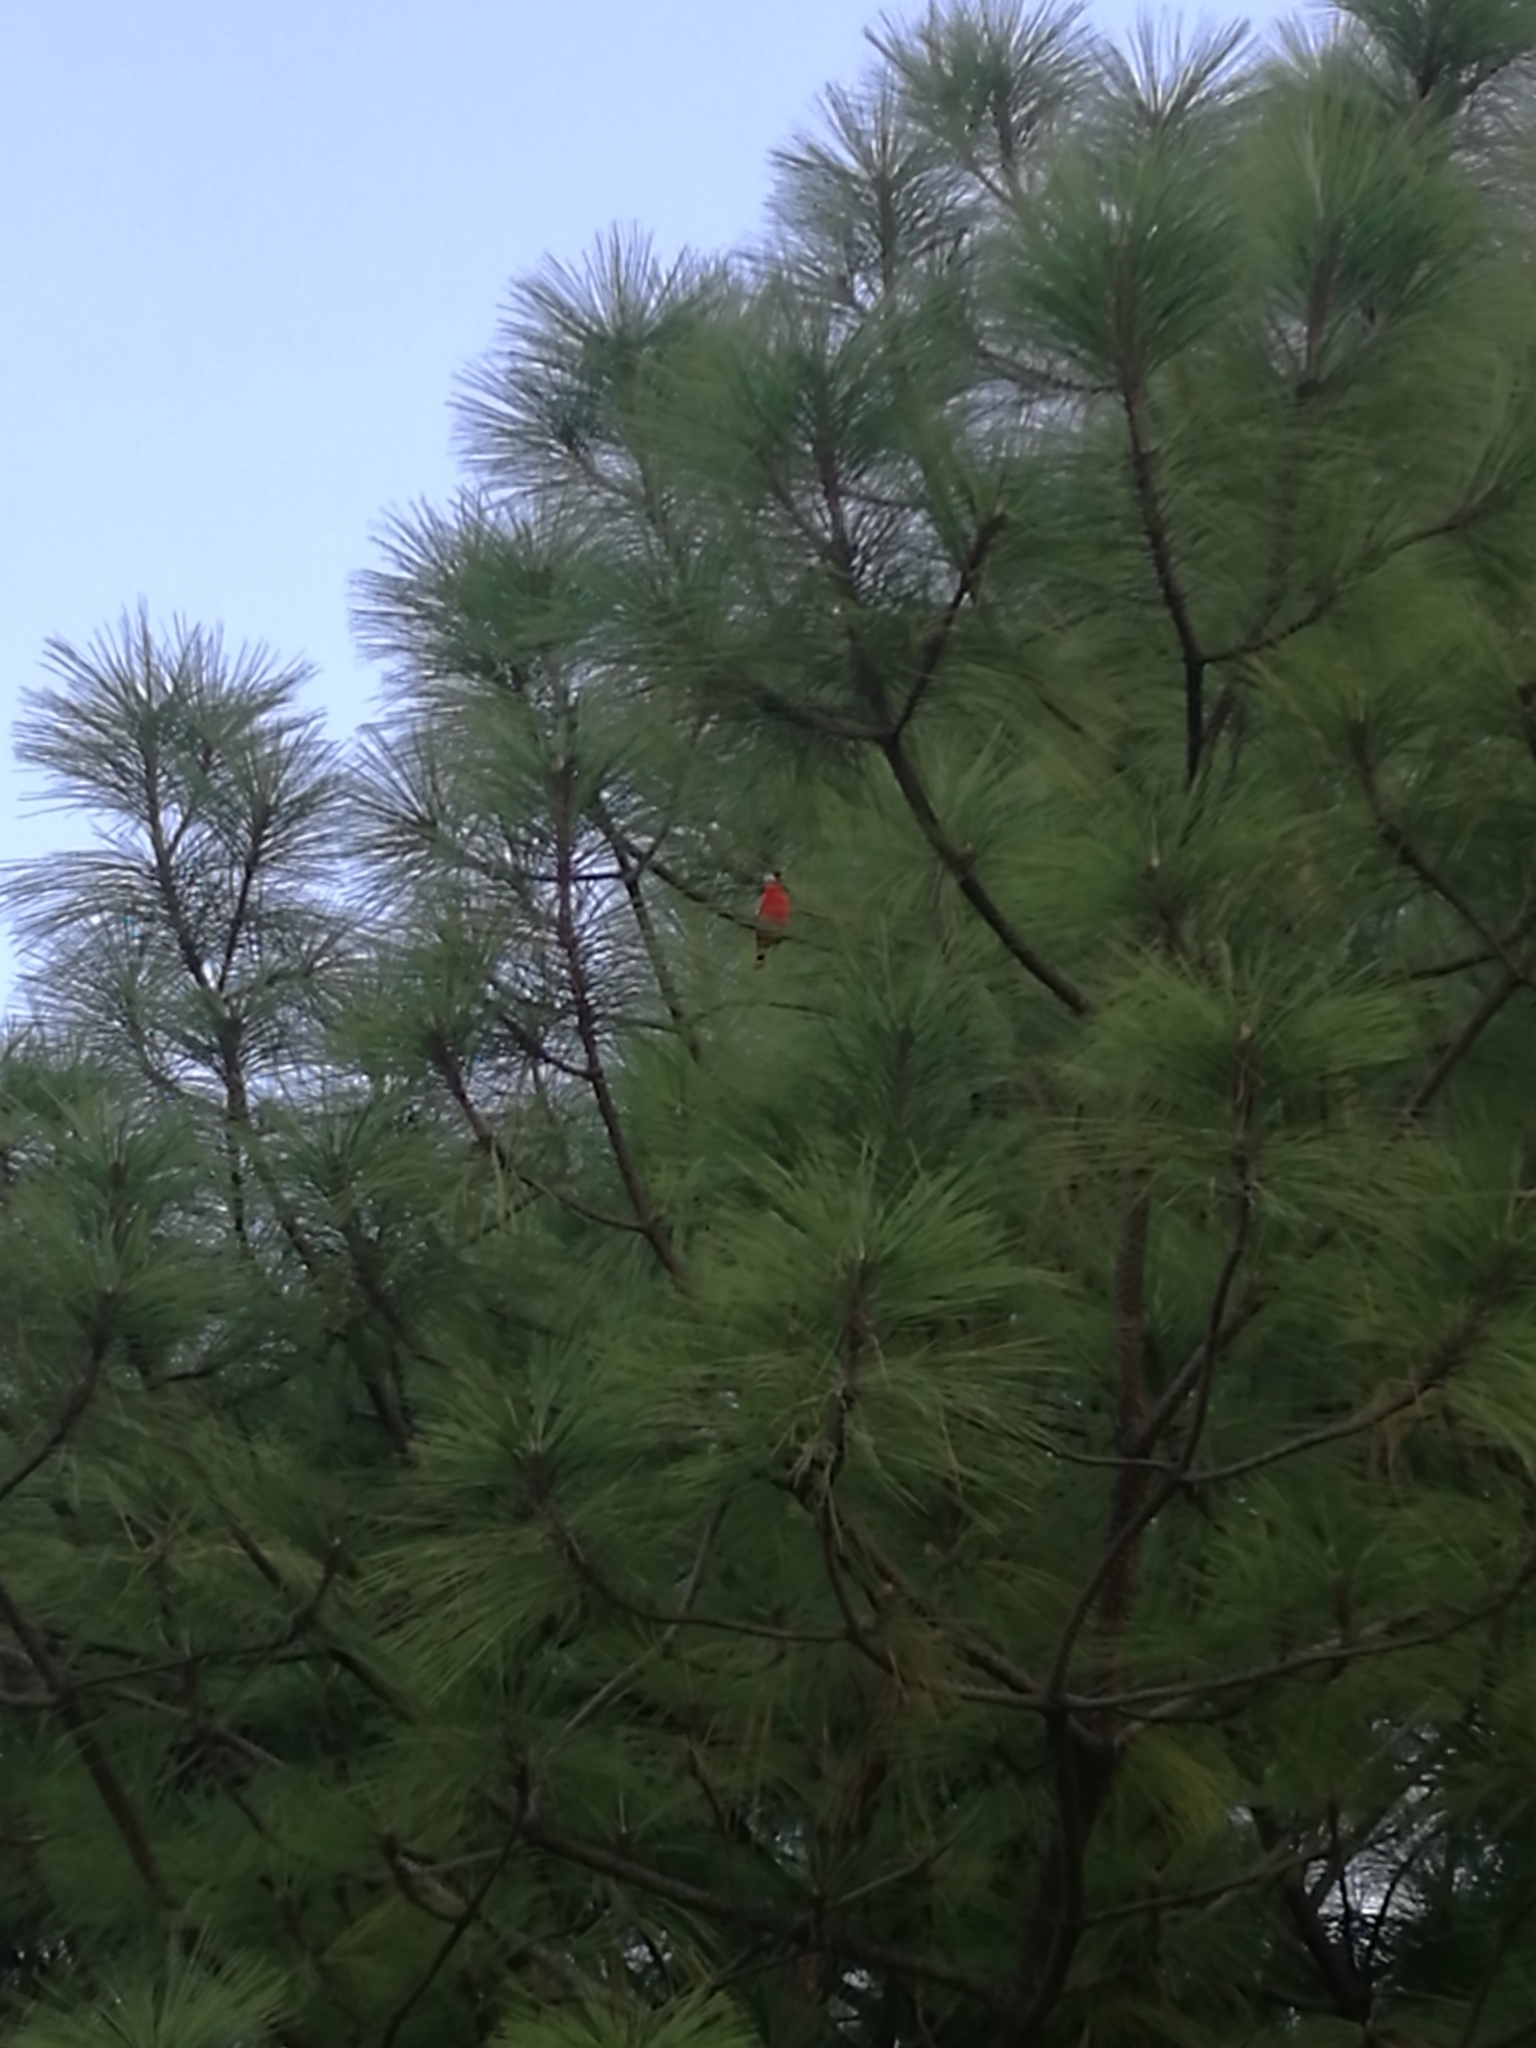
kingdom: Animalia
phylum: Chordata
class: Aves
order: Passeriformes
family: Cardinalidae
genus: Piranga
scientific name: Piranga rubra
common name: Summer tanager
